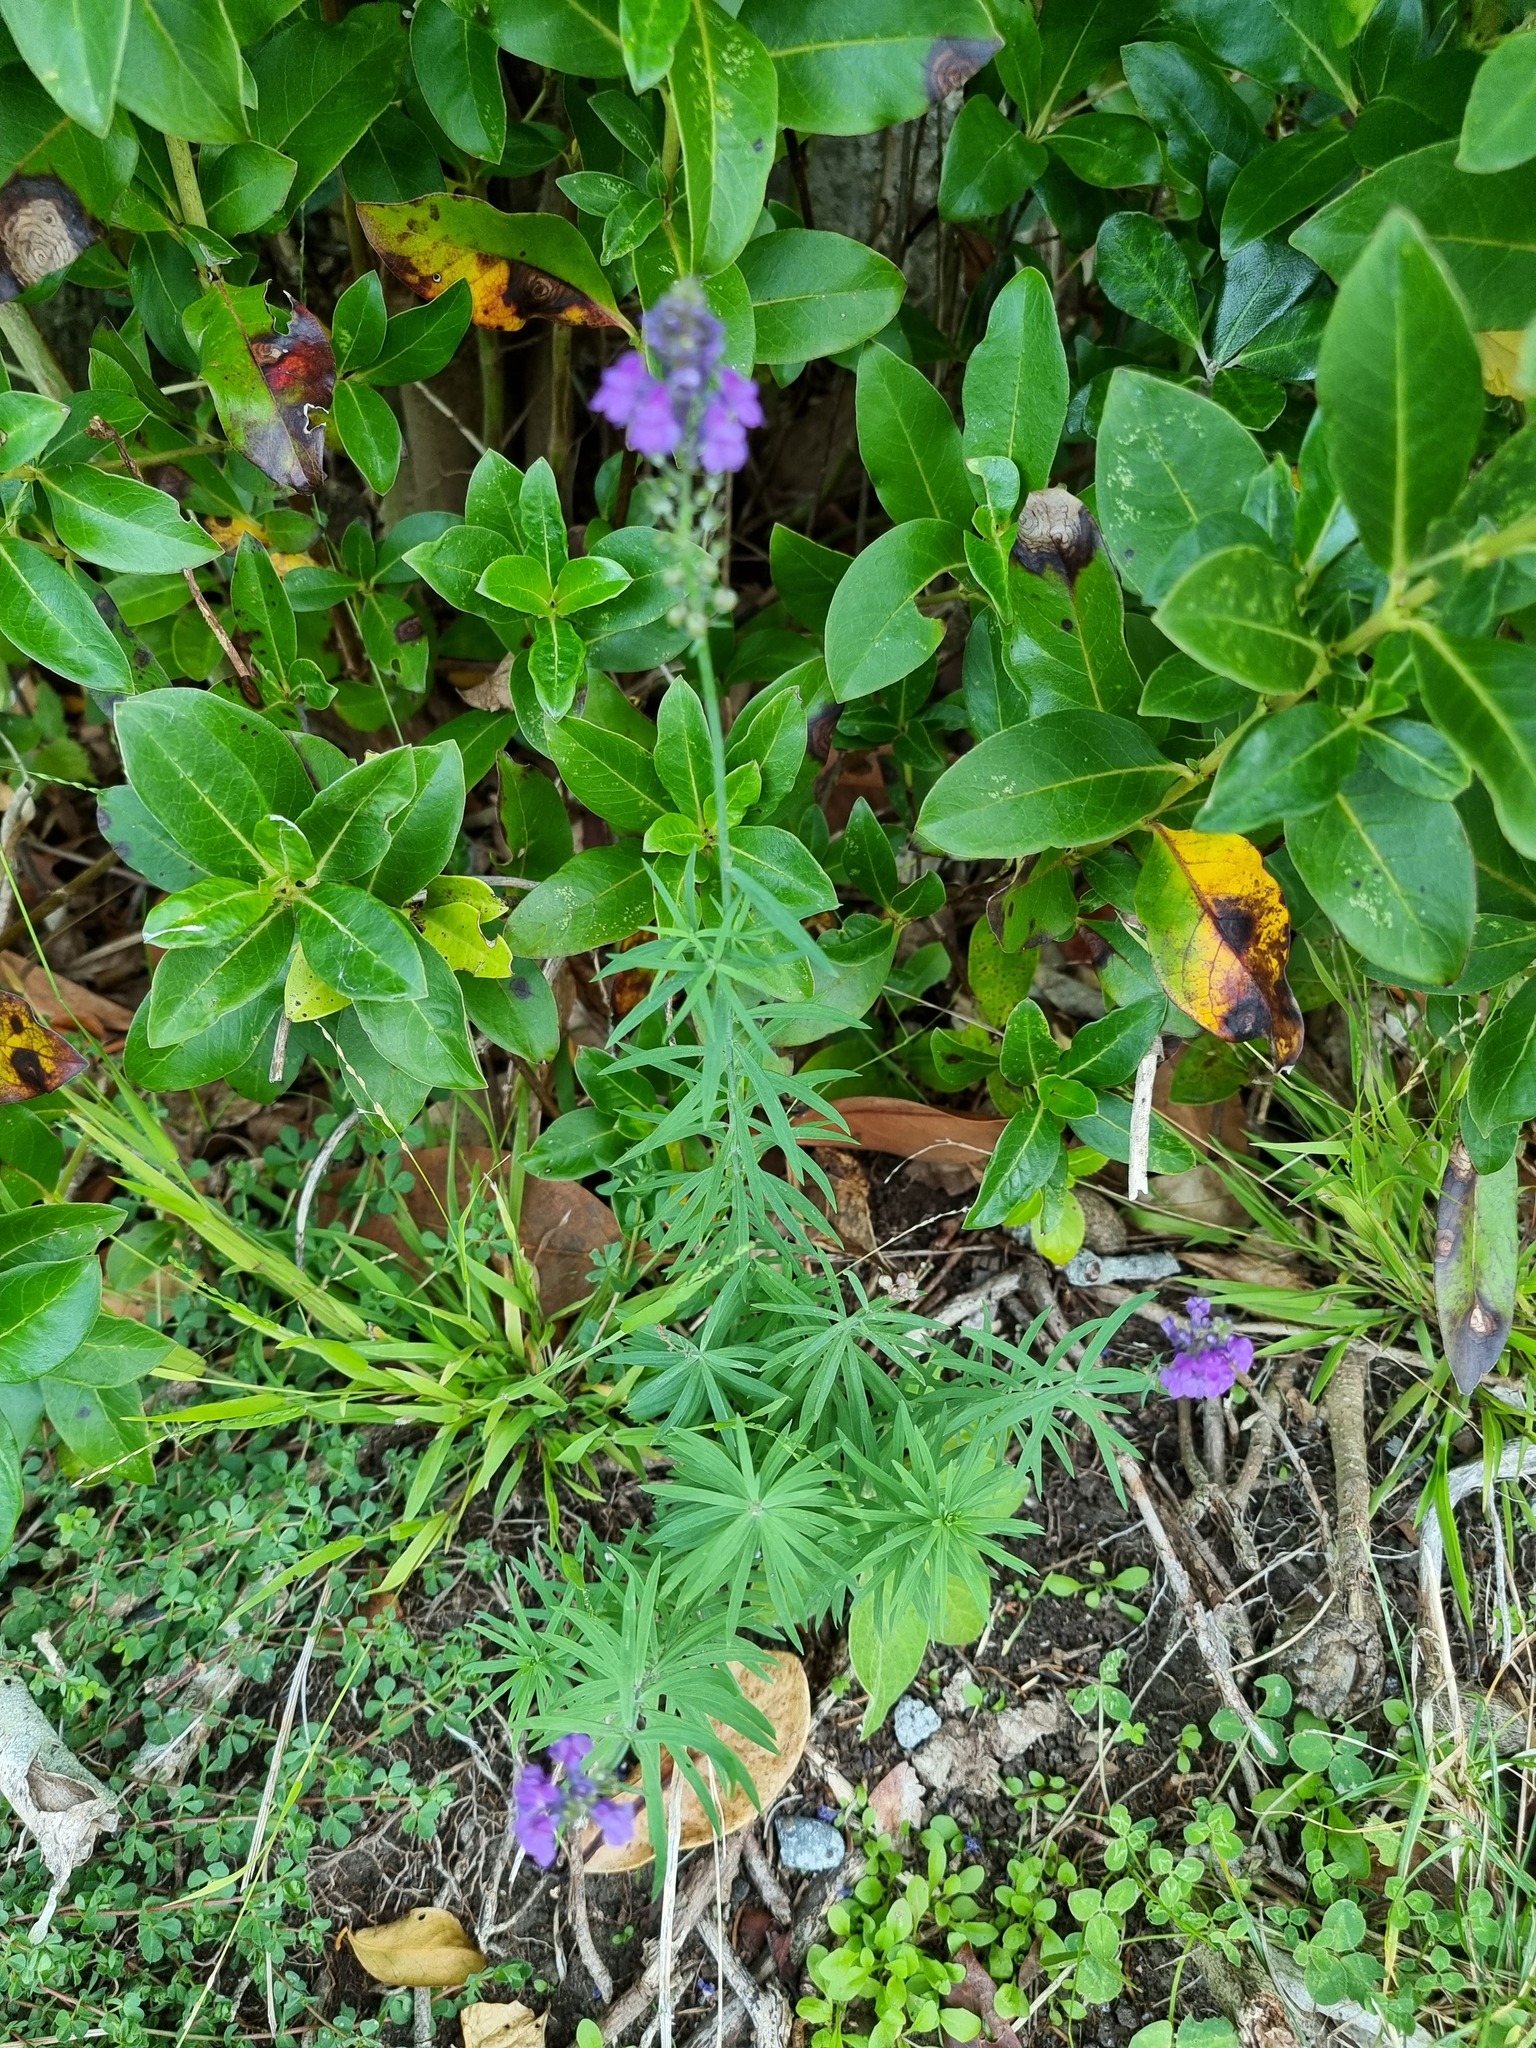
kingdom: Plantae
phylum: Tracheophyta
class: Magnoliopsida
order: Lamiales
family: Plantaginaceae
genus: Linaria
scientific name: Linaria purpurea
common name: Purple toadflax
